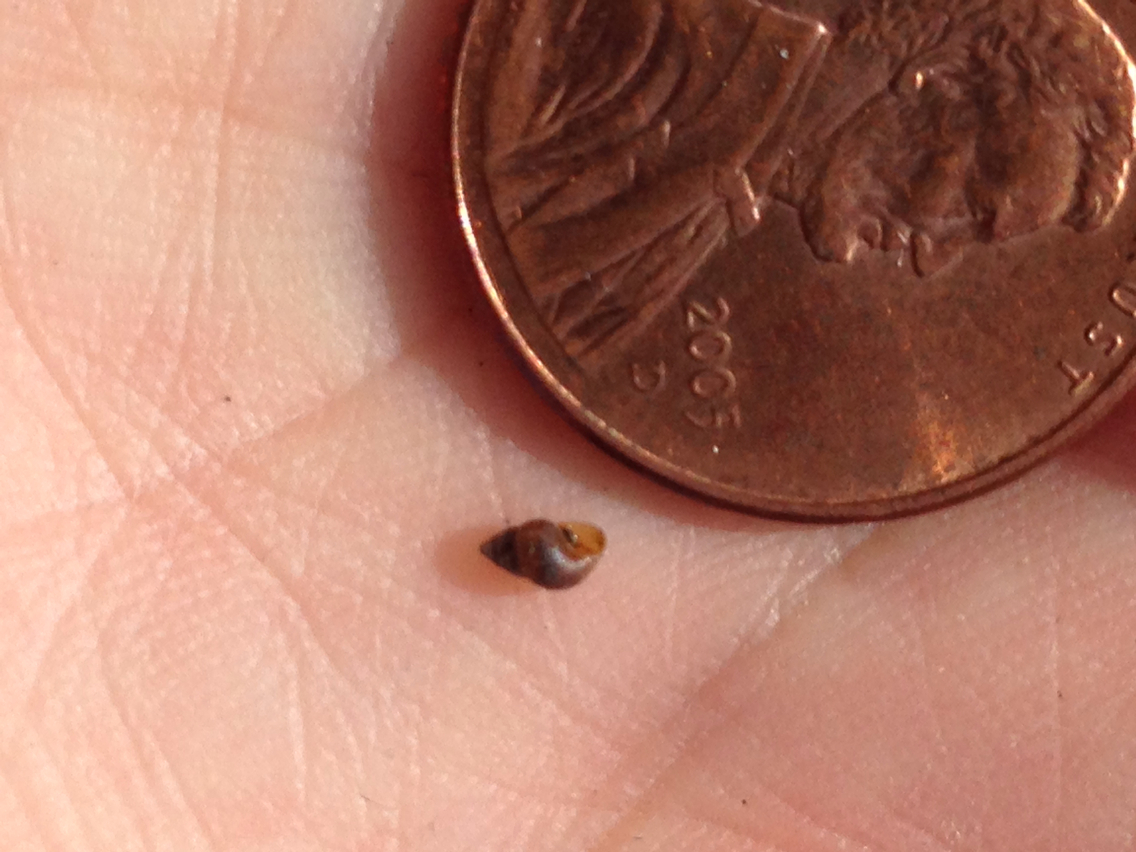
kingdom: Animalia
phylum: Mollusca
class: Gastropoda
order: Littorinimorpha
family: Assimineidae
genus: Angustassiminea
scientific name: Angustassiminea californica
